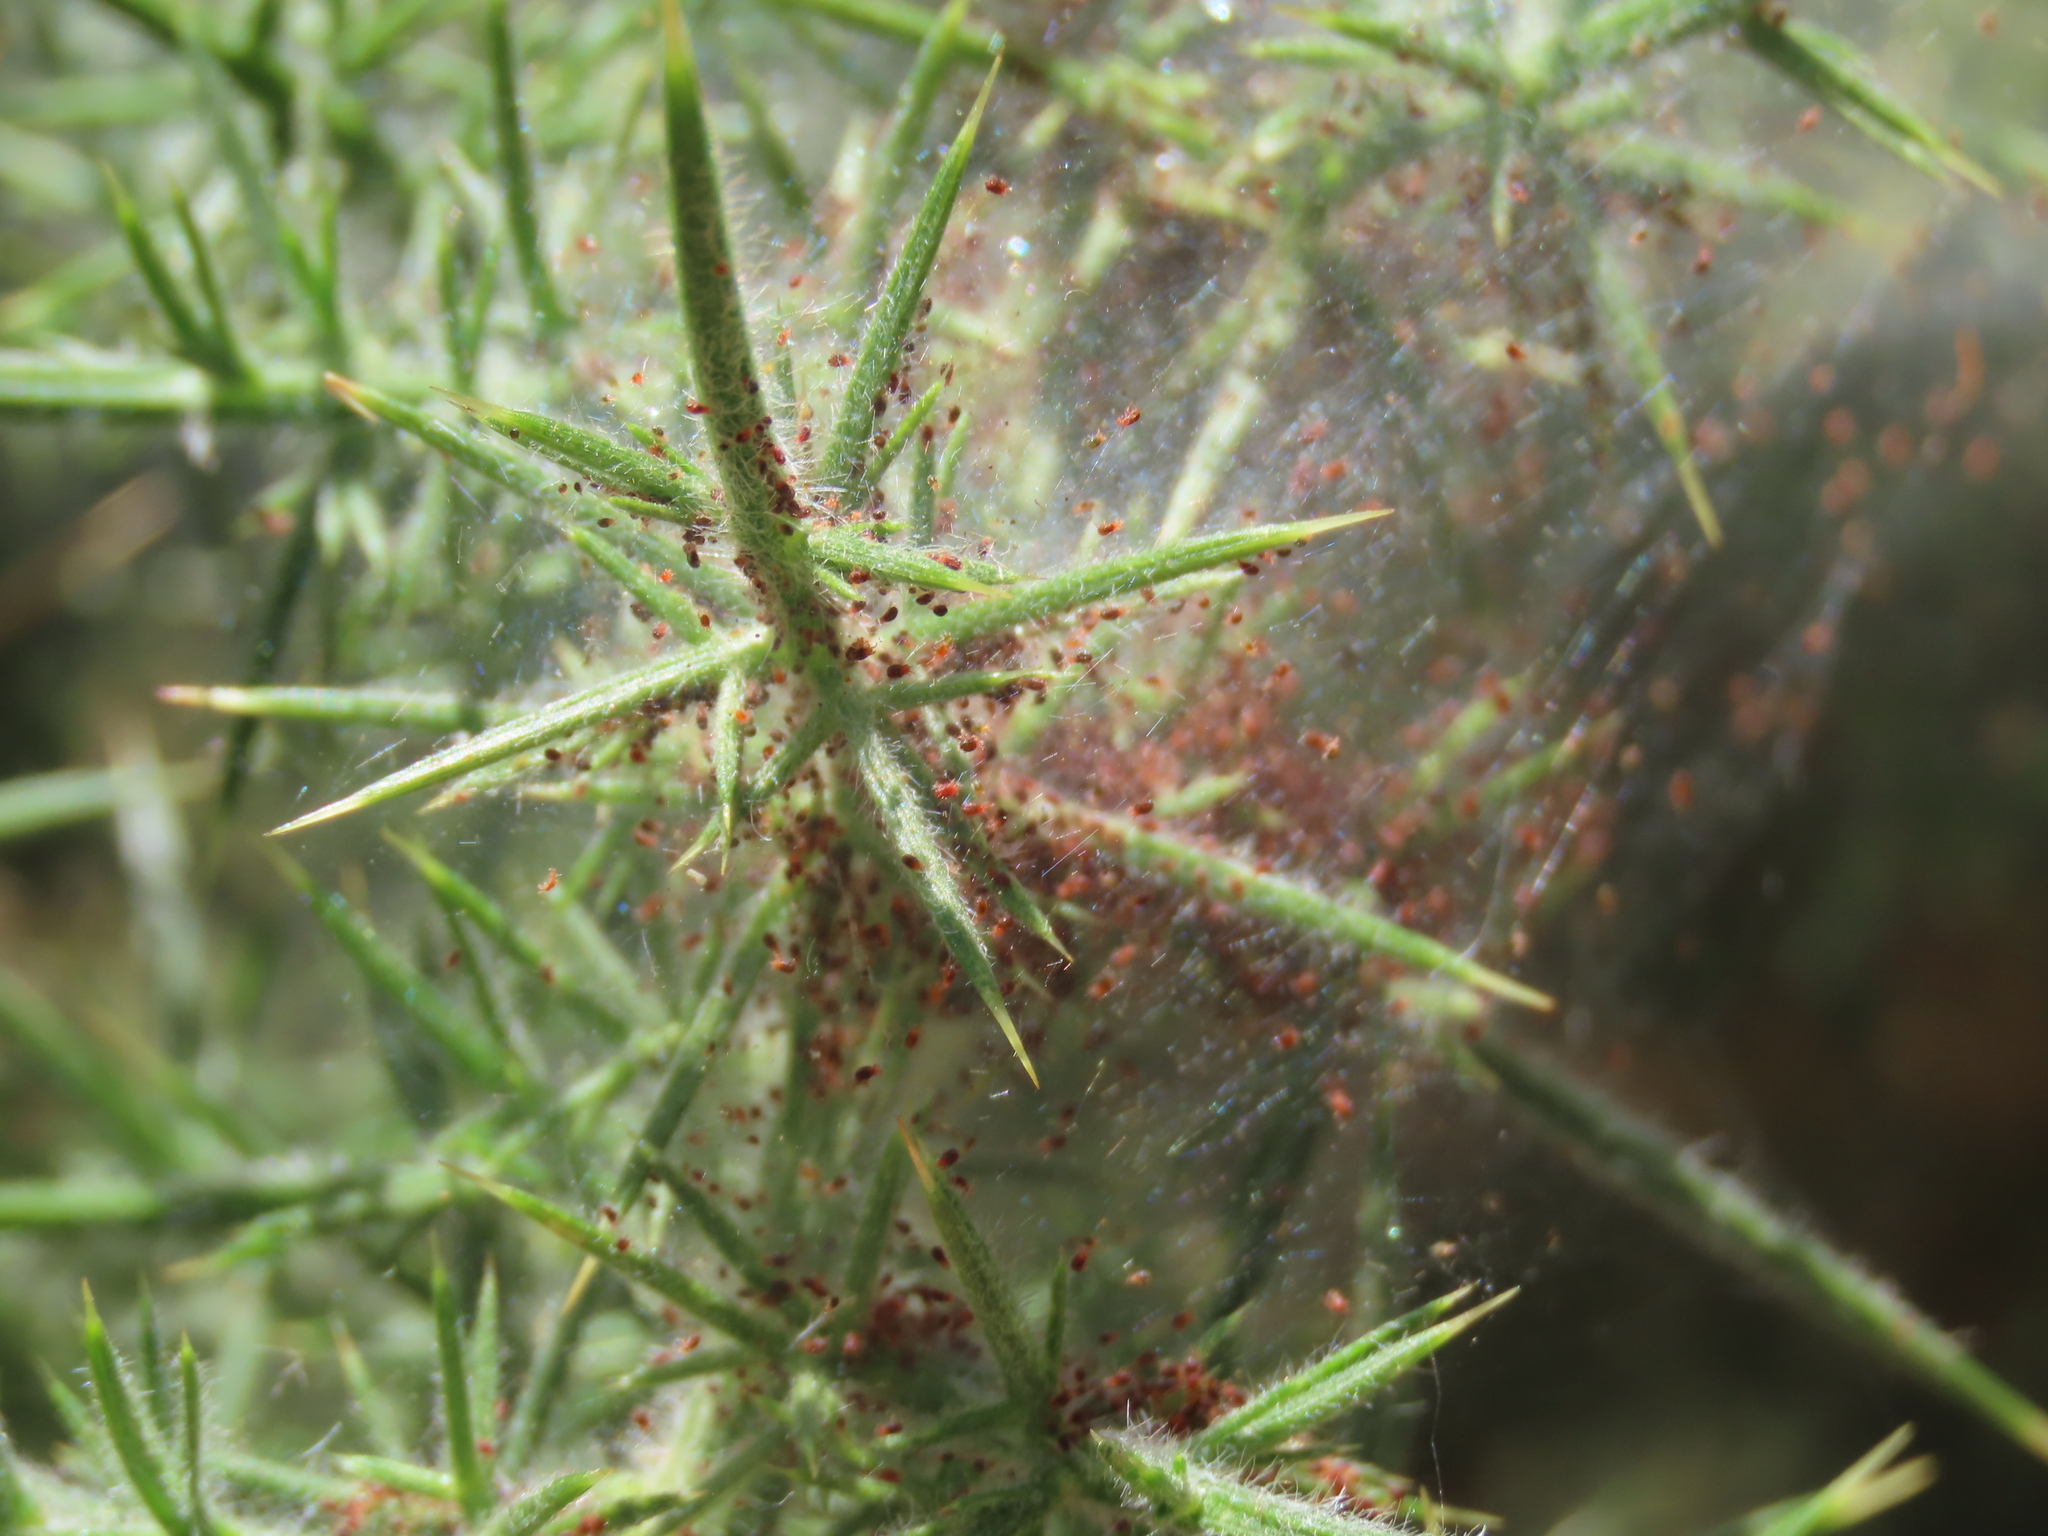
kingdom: Animalia
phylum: Arthropoda
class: Arachnida
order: Trombidiformes
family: Tetranychidae
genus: Tetranychus
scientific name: Tetranychus lintearius
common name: Gorse spider mite
